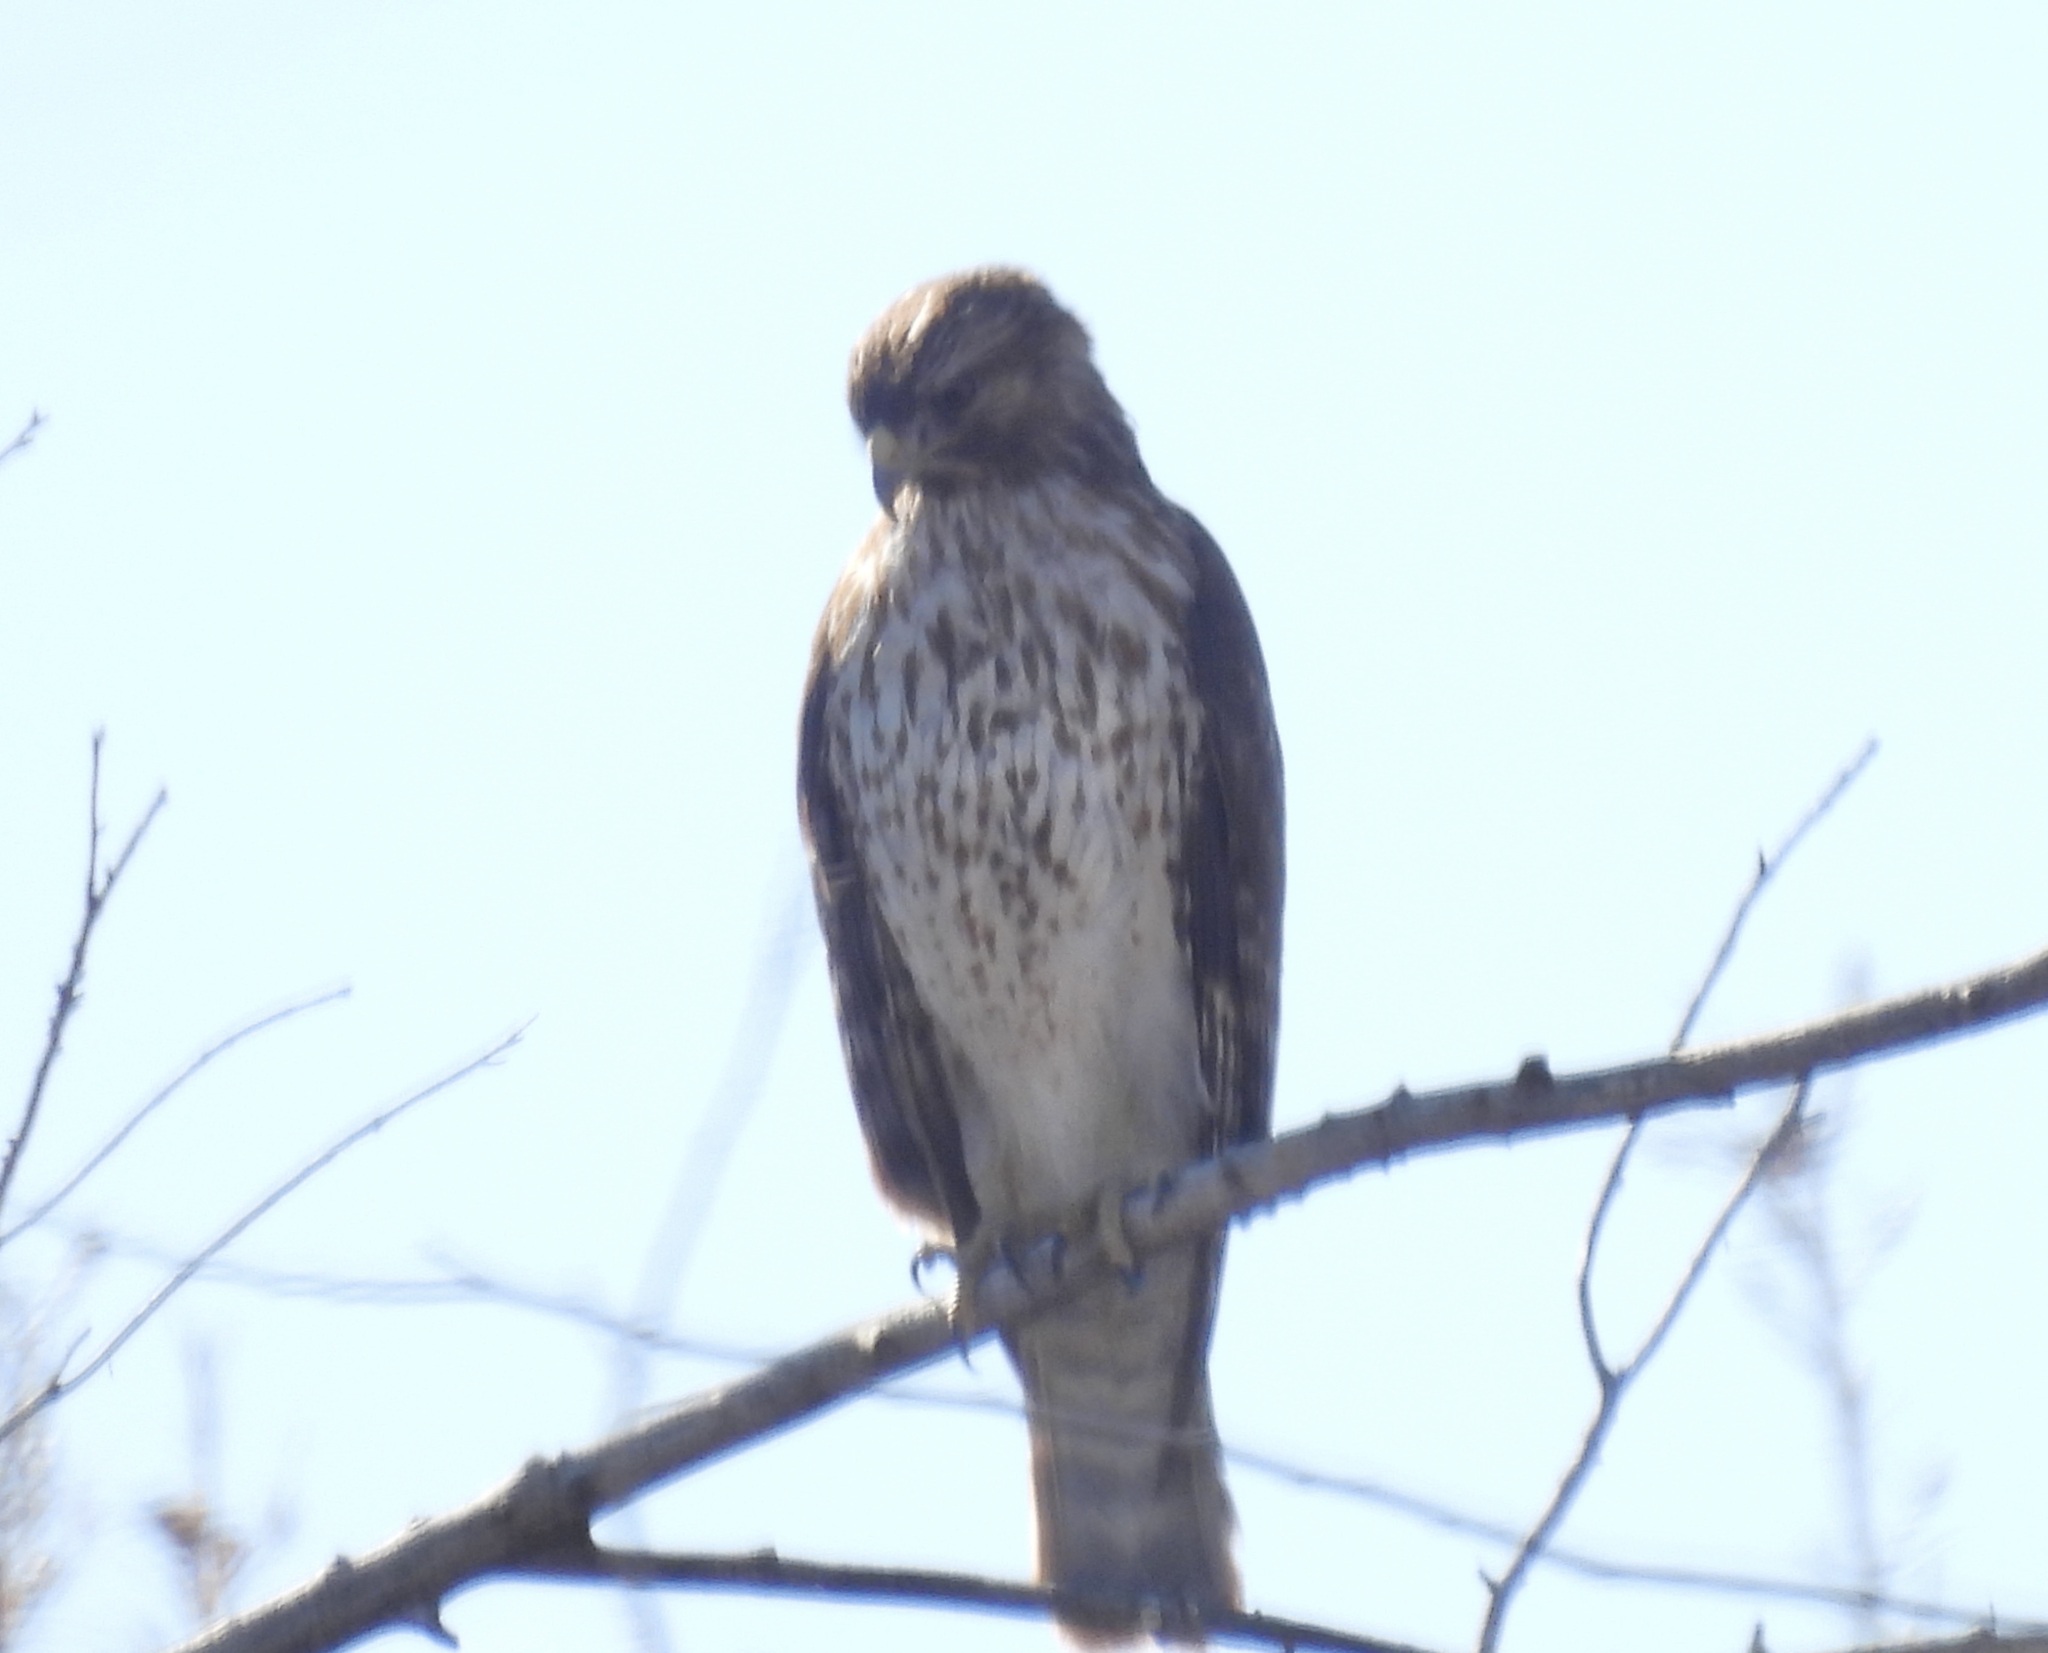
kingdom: Animalia
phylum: Chordata
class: Aves
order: Accipitriformes
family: Accipitridae
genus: Buteo
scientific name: Buteo lineatus
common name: Red-shouldered hawk
